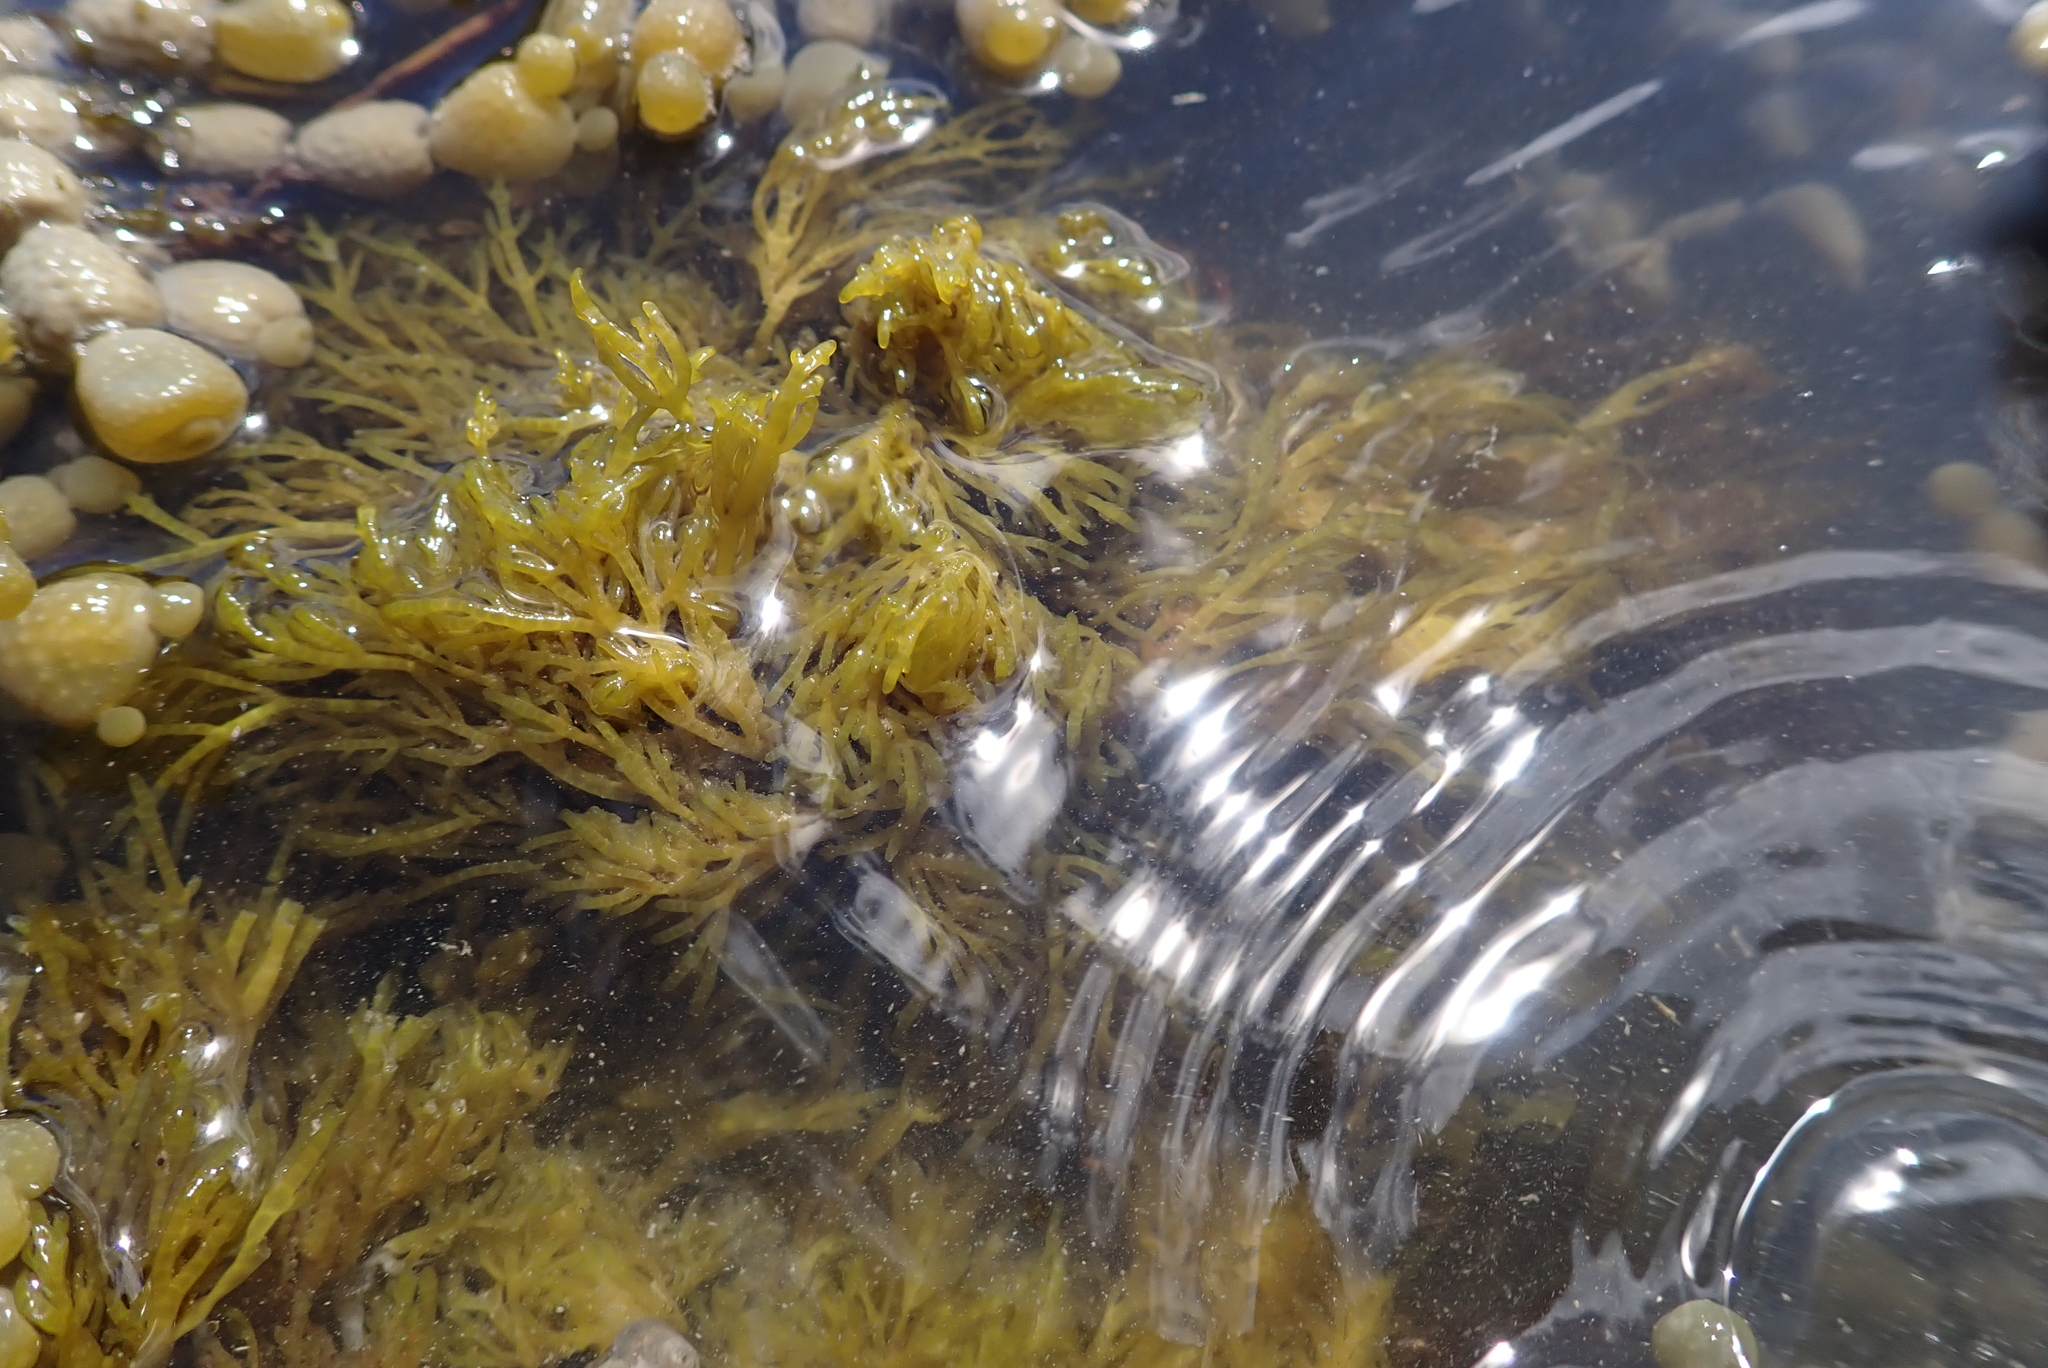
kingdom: Plantae
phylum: Rhodophyta
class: Florideophyceae
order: Rhodymeniales
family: Champiaceae
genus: Champia
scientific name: Champia novae-zelandiae
